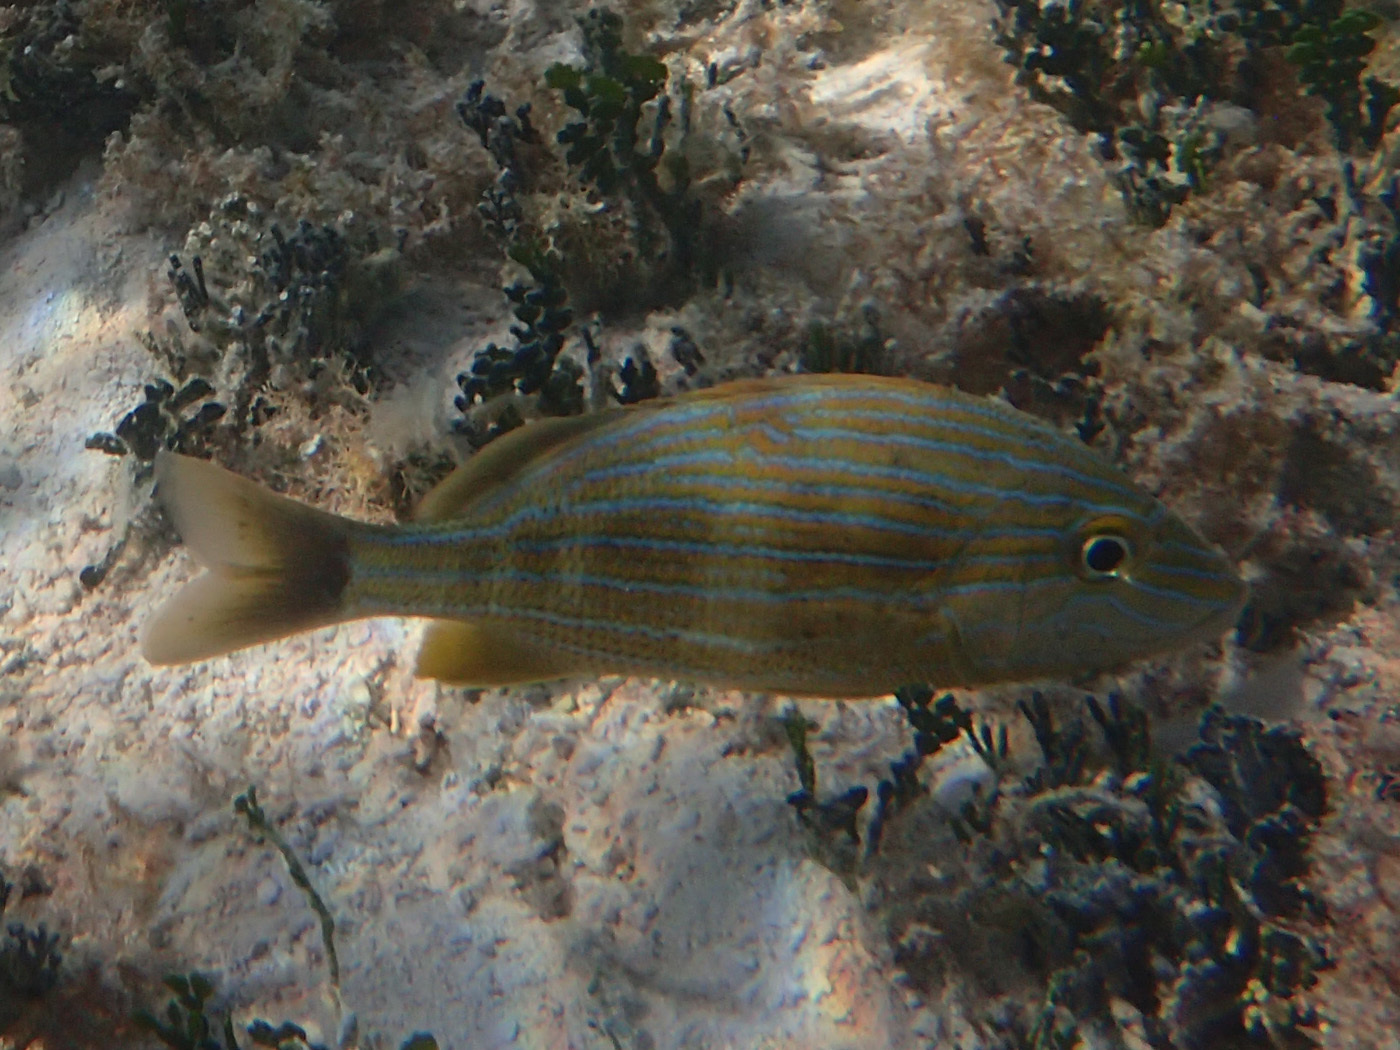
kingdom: Animalia
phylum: Chordata
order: Perciformes
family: Haemulidae
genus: Haemulon
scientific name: Haemulon sciurus
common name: Bluestriped grunt
